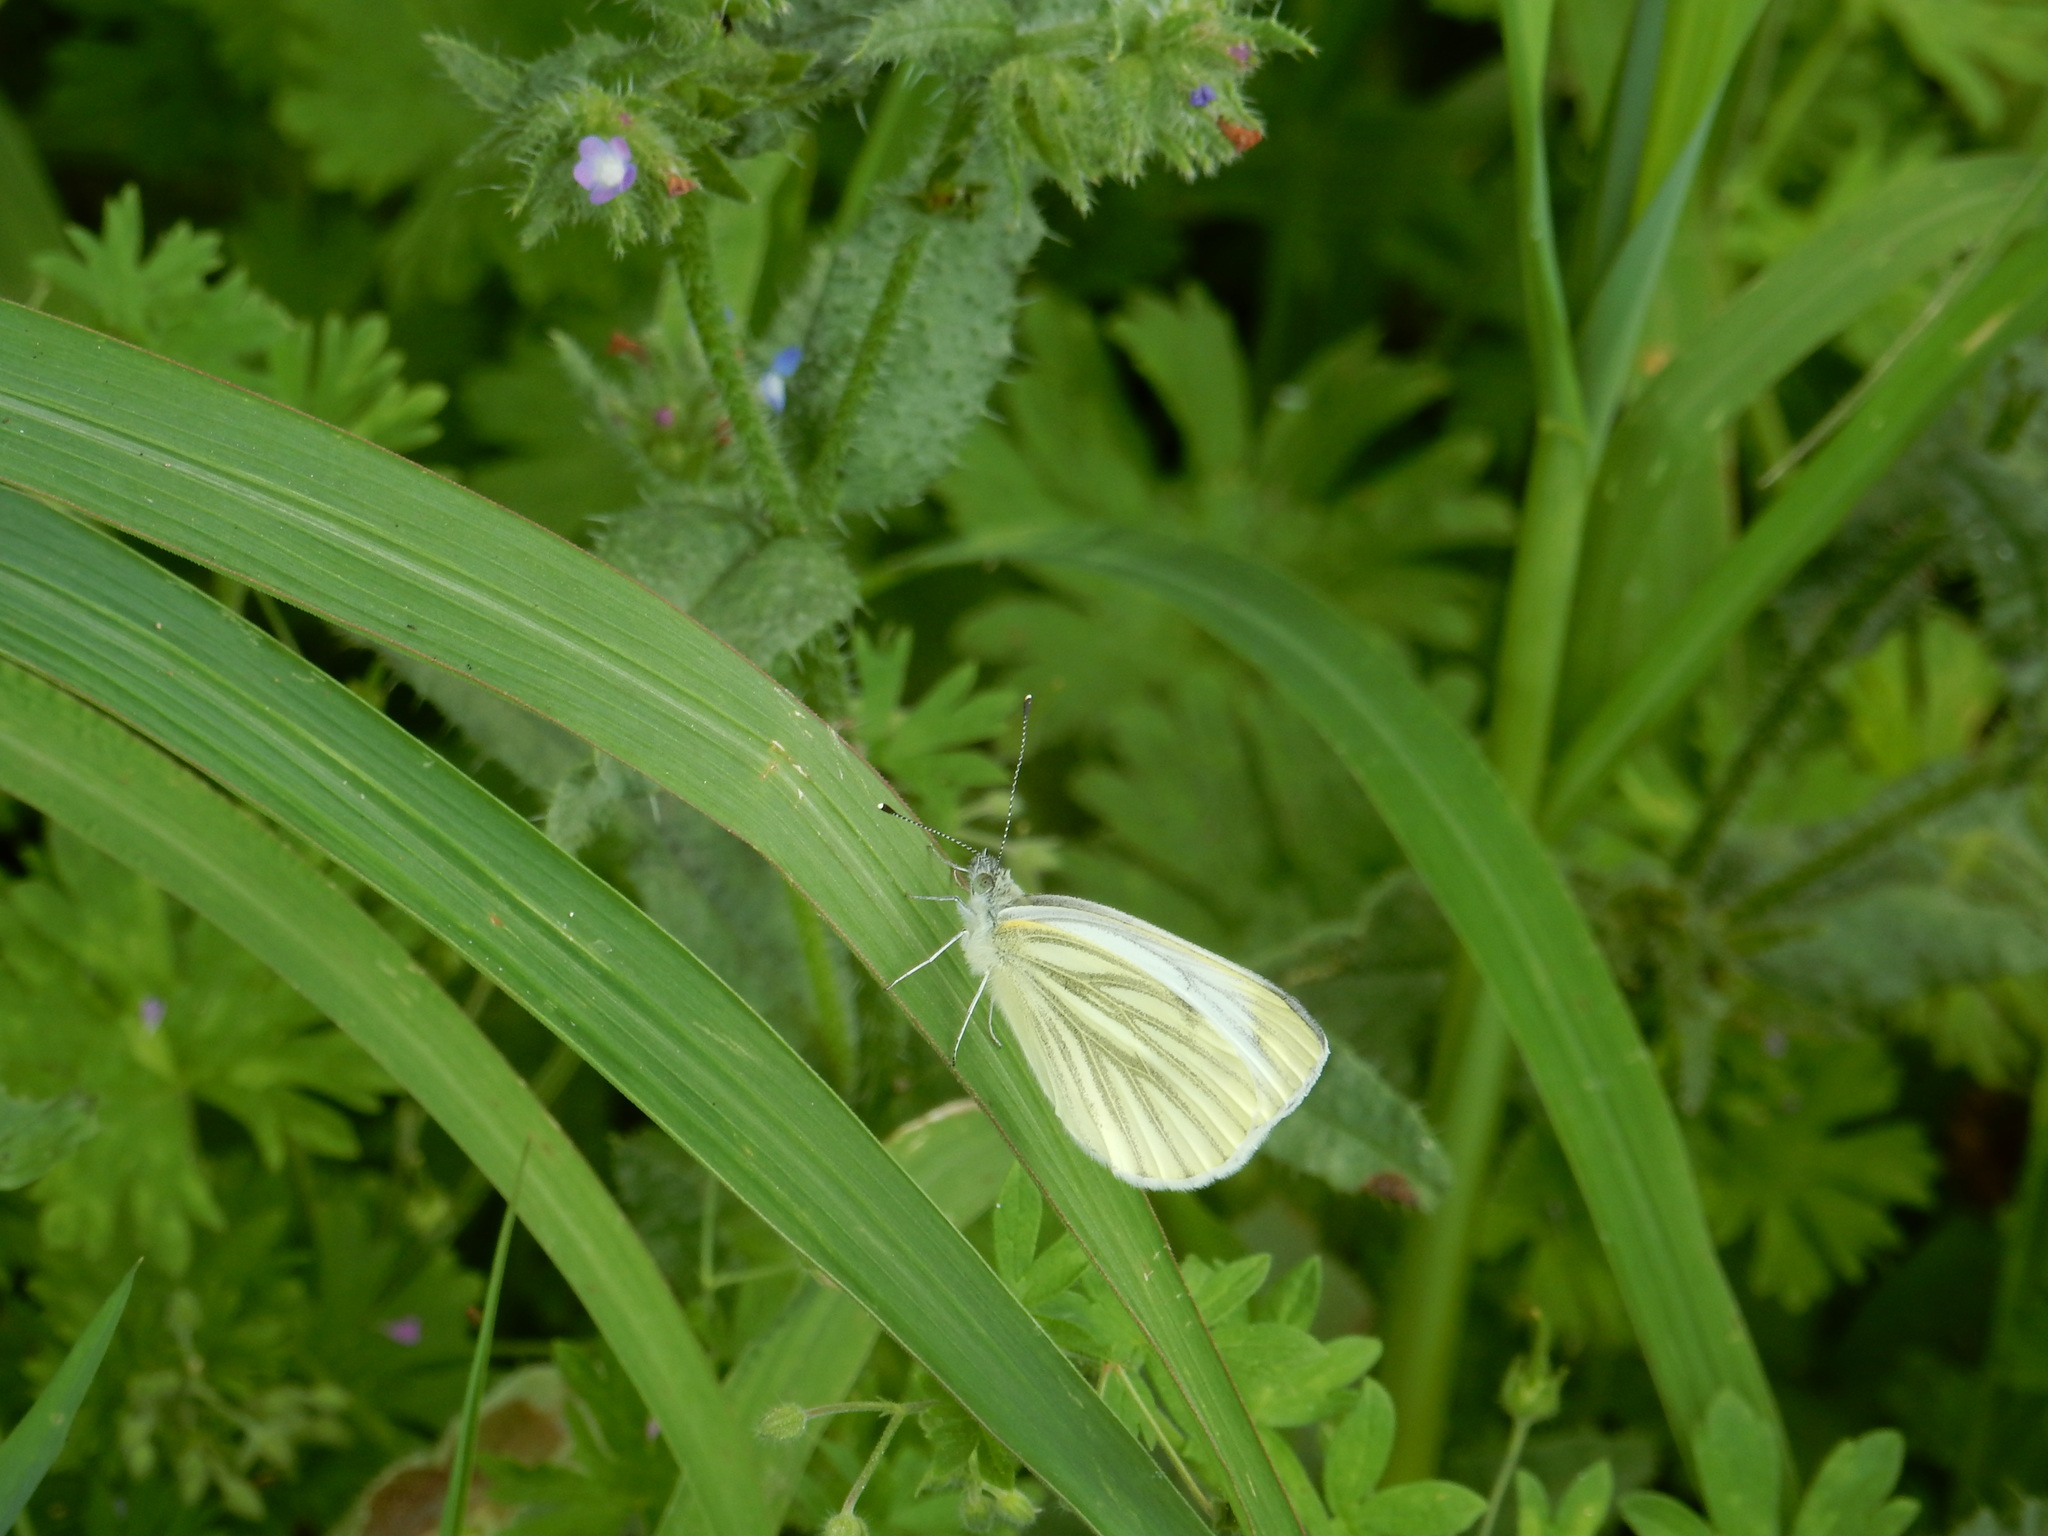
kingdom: Animalia
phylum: Arthropoda
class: Insecta
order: Lepidoptera
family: Pieridae
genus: Pieris
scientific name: Pieris napi
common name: Green-veined white
